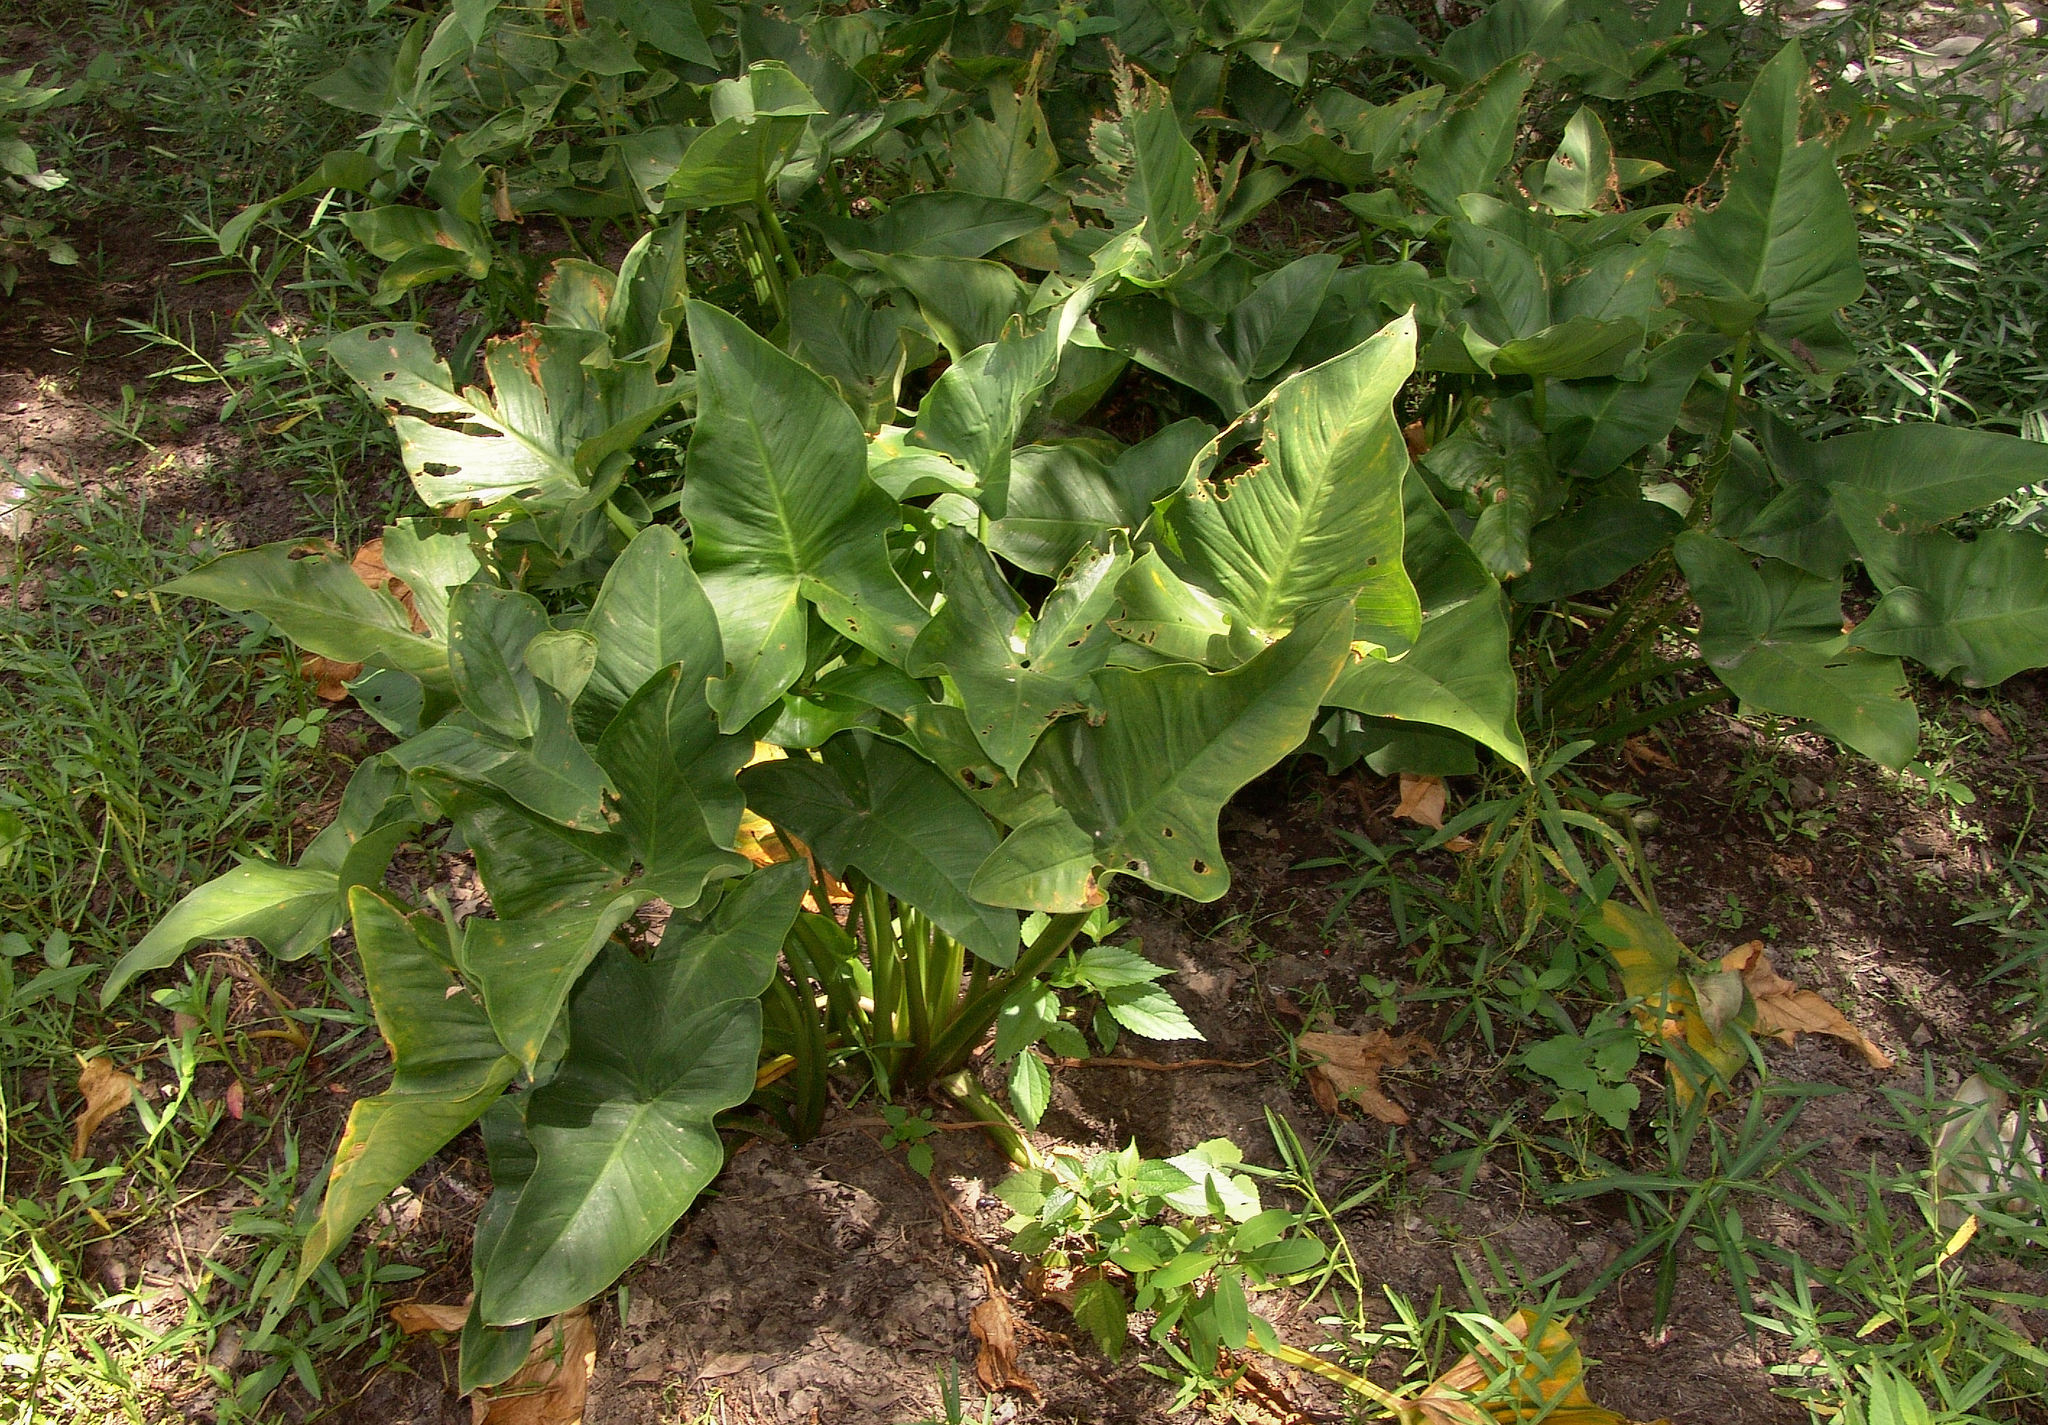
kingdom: Plantae
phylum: Tracheophyta
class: Liliopsida
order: Alismatales
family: Araceae
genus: Peltandra
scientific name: Peltandra virginica
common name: Arrow arum
